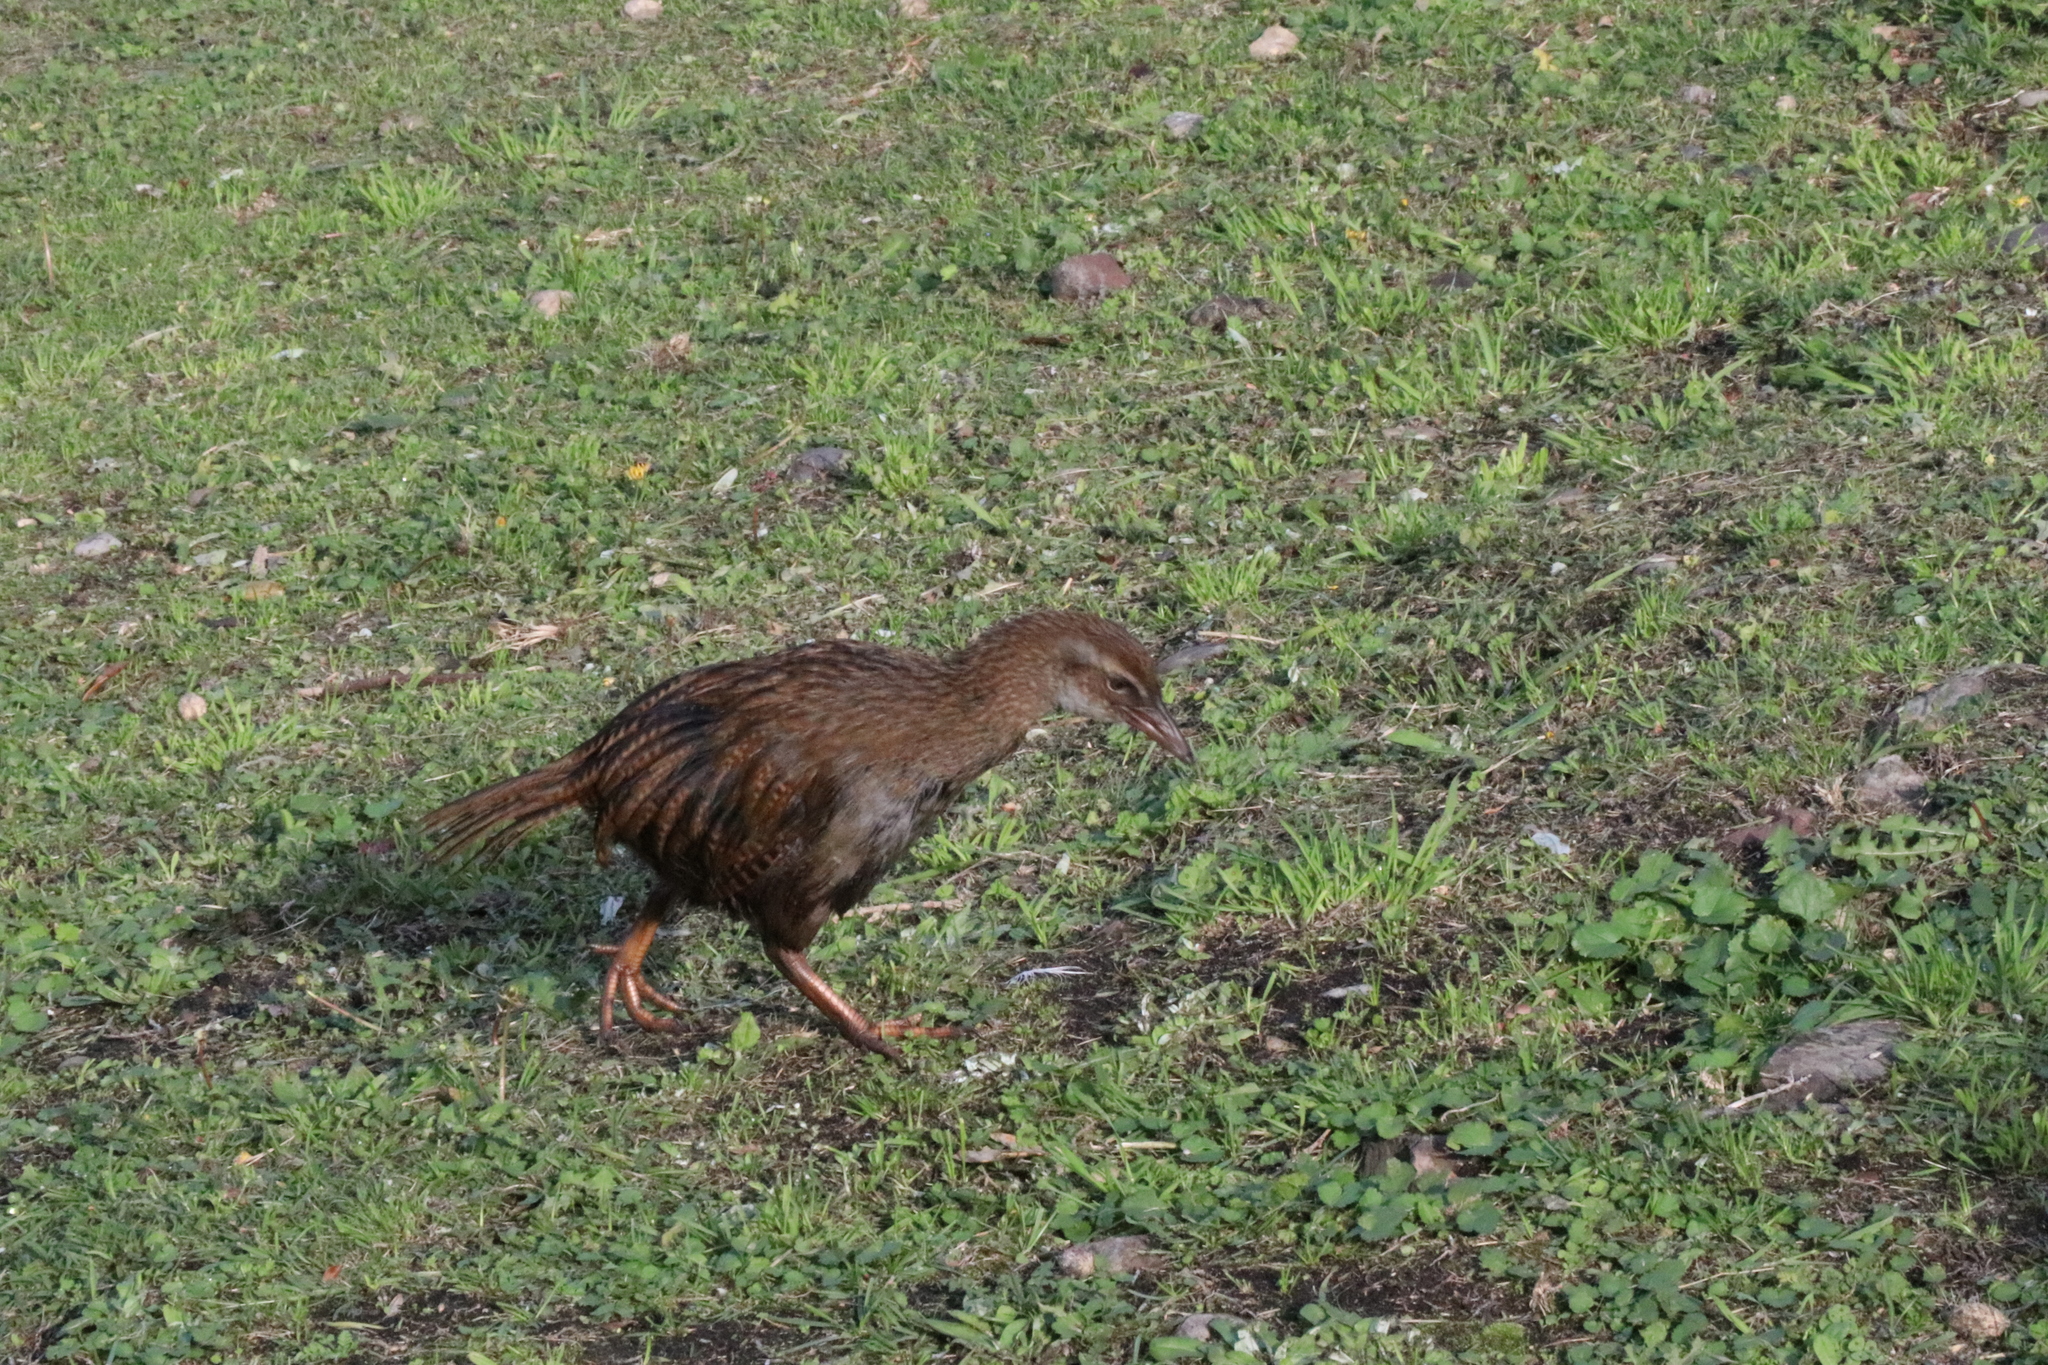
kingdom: Animalia
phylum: Chordata
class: Aves
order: Gruiformes
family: Rallidae
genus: Gallirallus
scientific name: Gallirallus australis
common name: Weka
